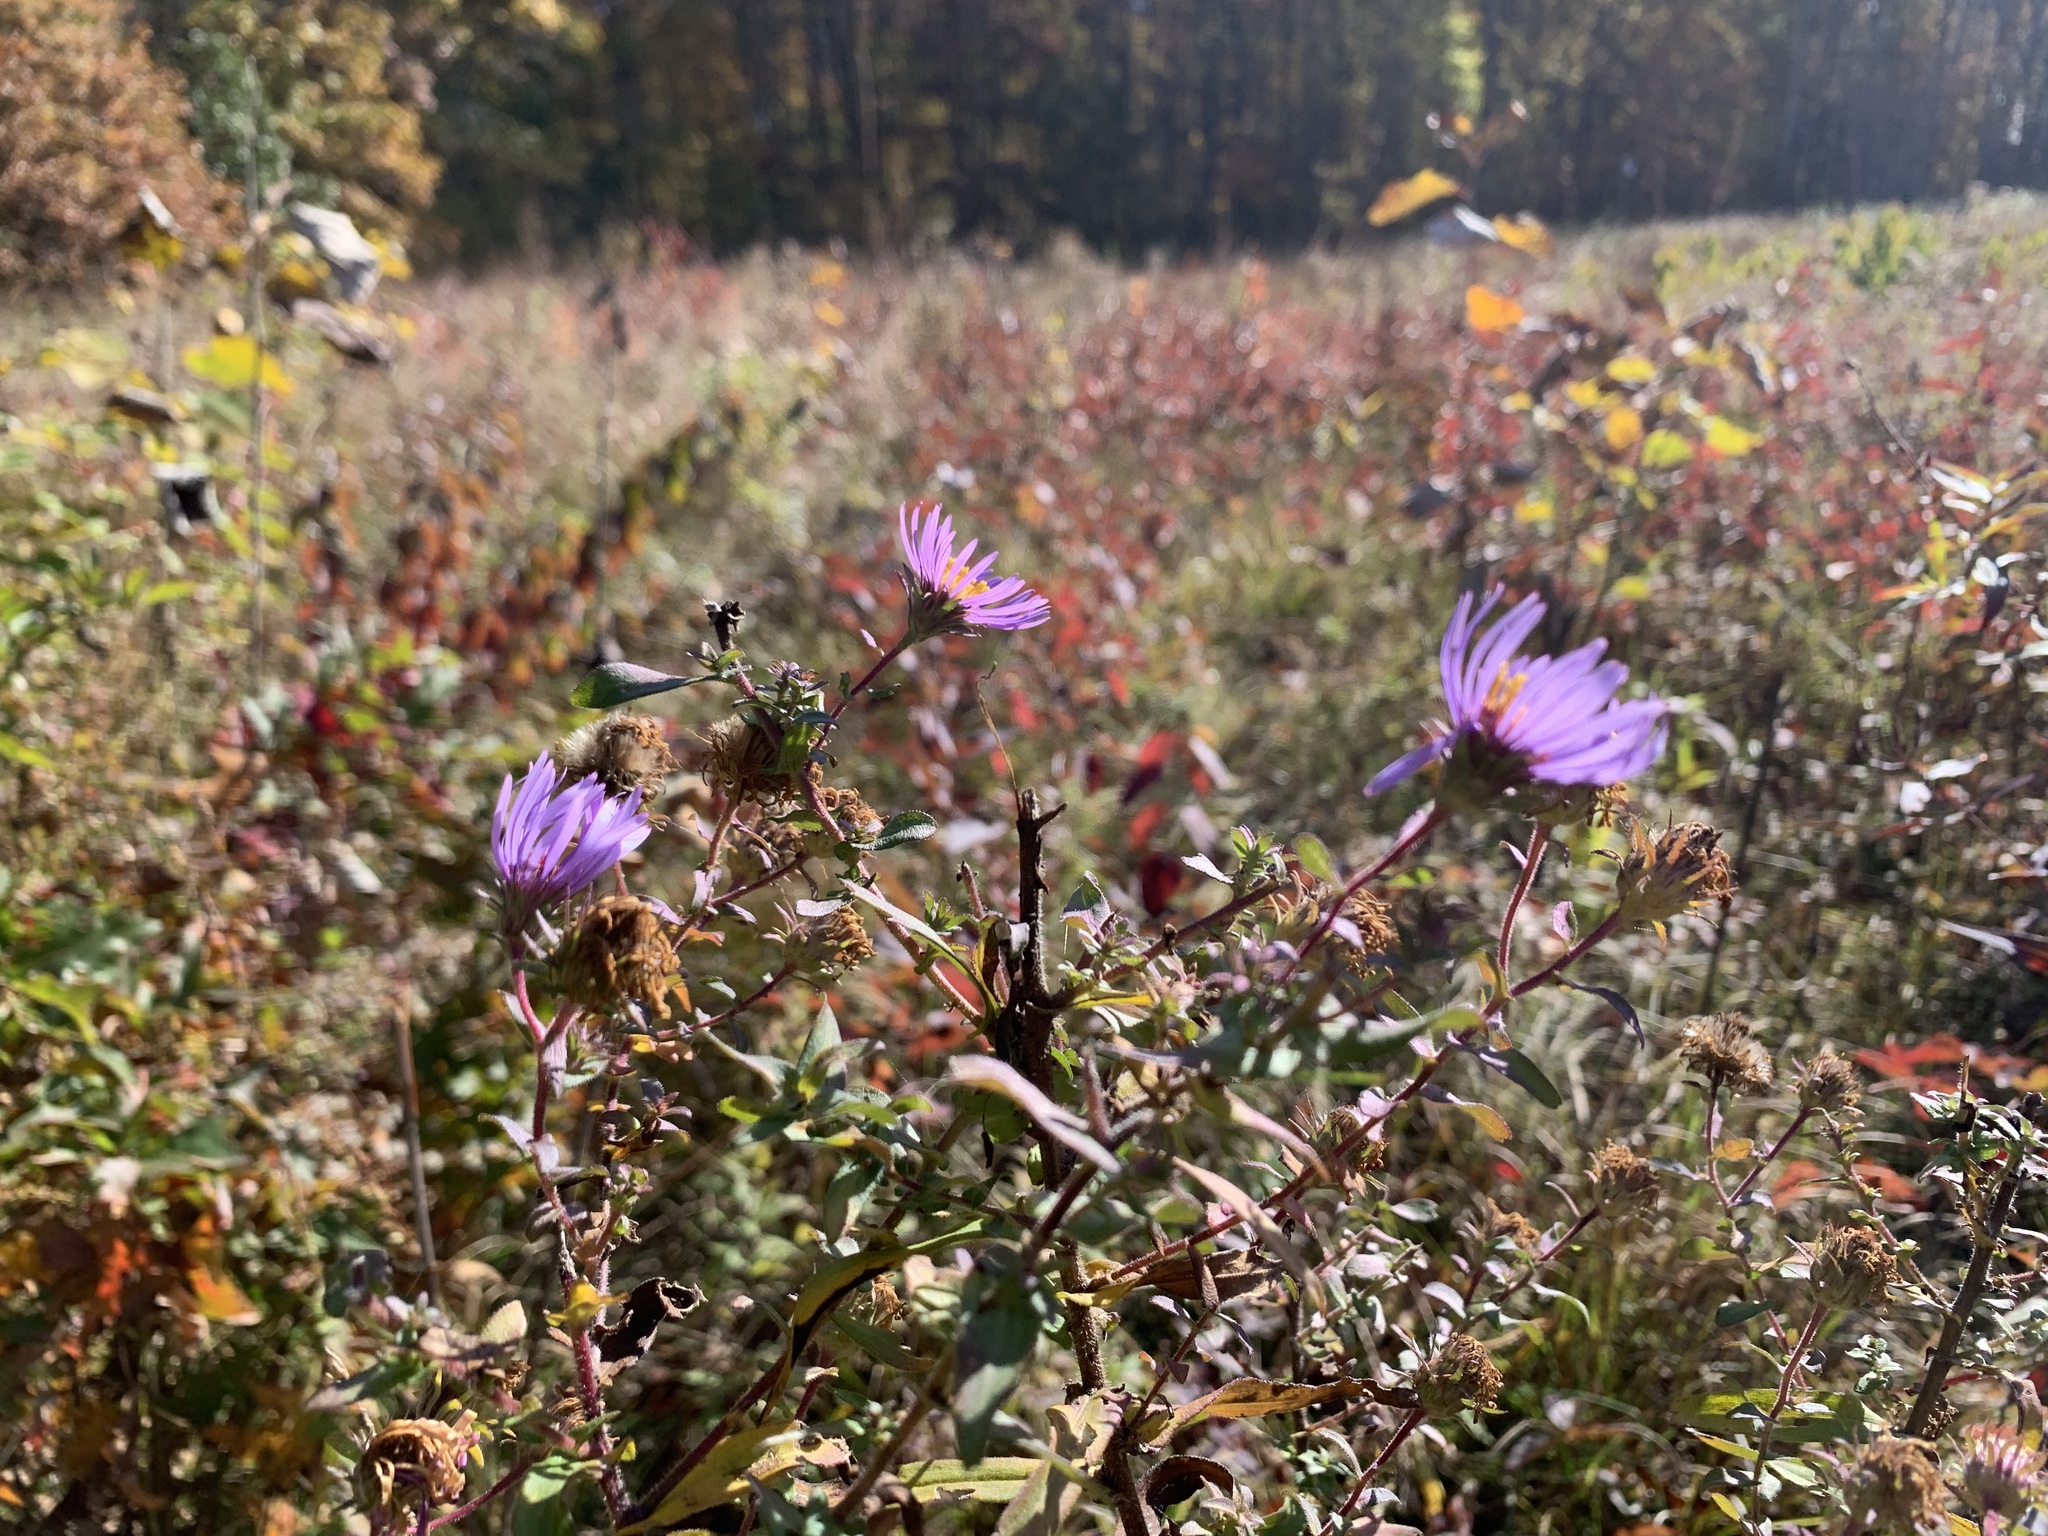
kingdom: Plantae
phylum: Tracheophyta
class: Magnoliopsida
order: Asterales
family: Asteraceae
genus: Symphyotrichum
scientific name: Symphyotrichum novae-angliae
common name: Michaelmas daisy
